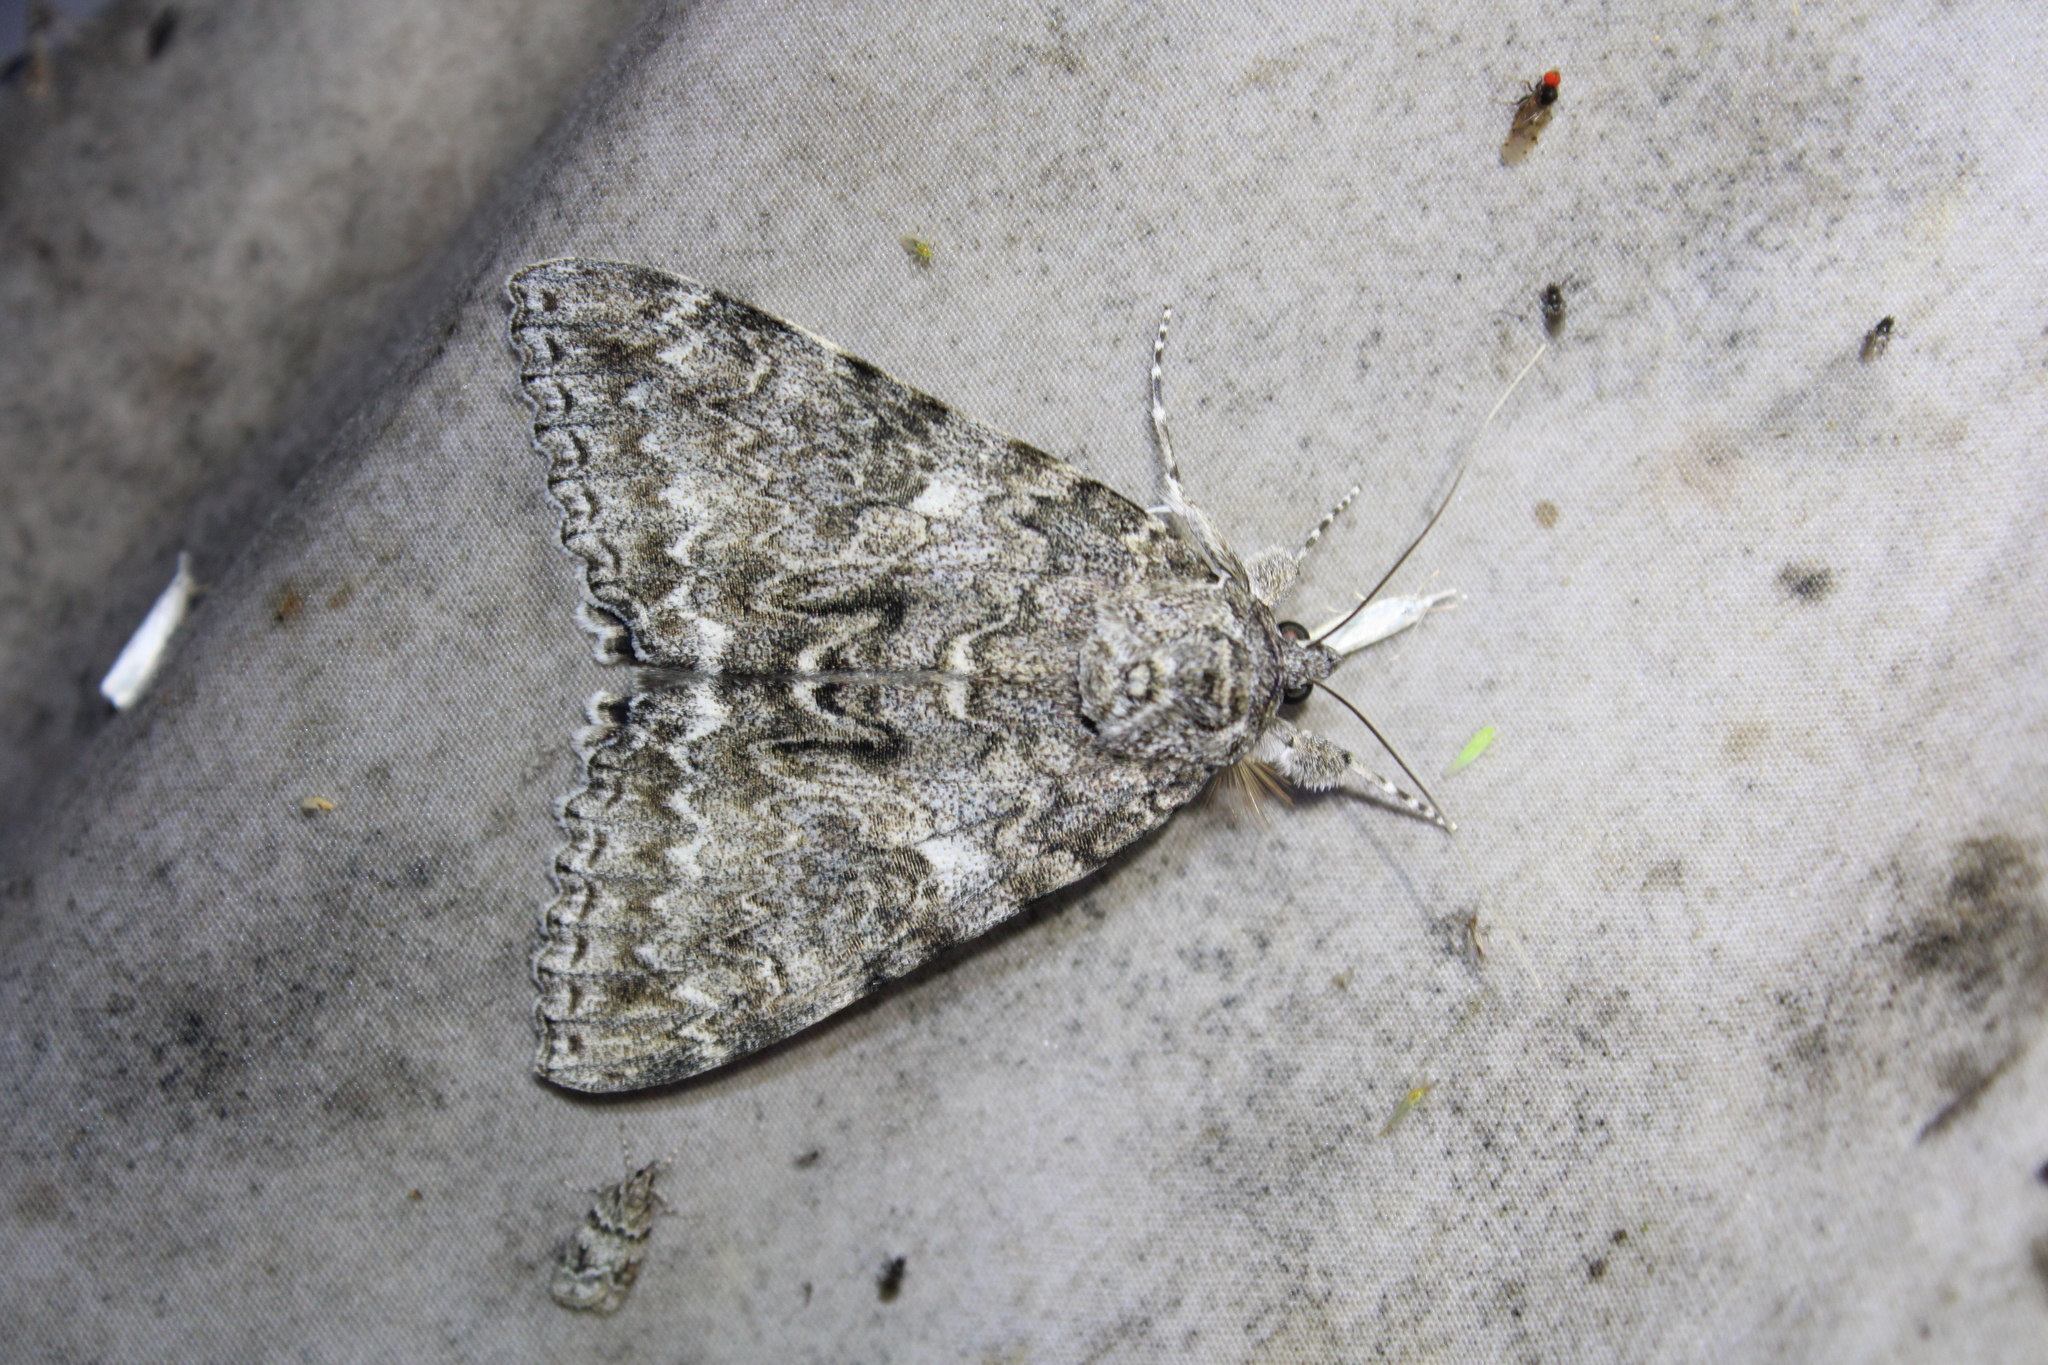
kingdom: Animalia
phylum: Arthropoda
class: Insecta
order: Lepidoptera
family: Erebidae
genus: Catocala
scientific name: Catocala unijuga
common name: Once-married underwing
